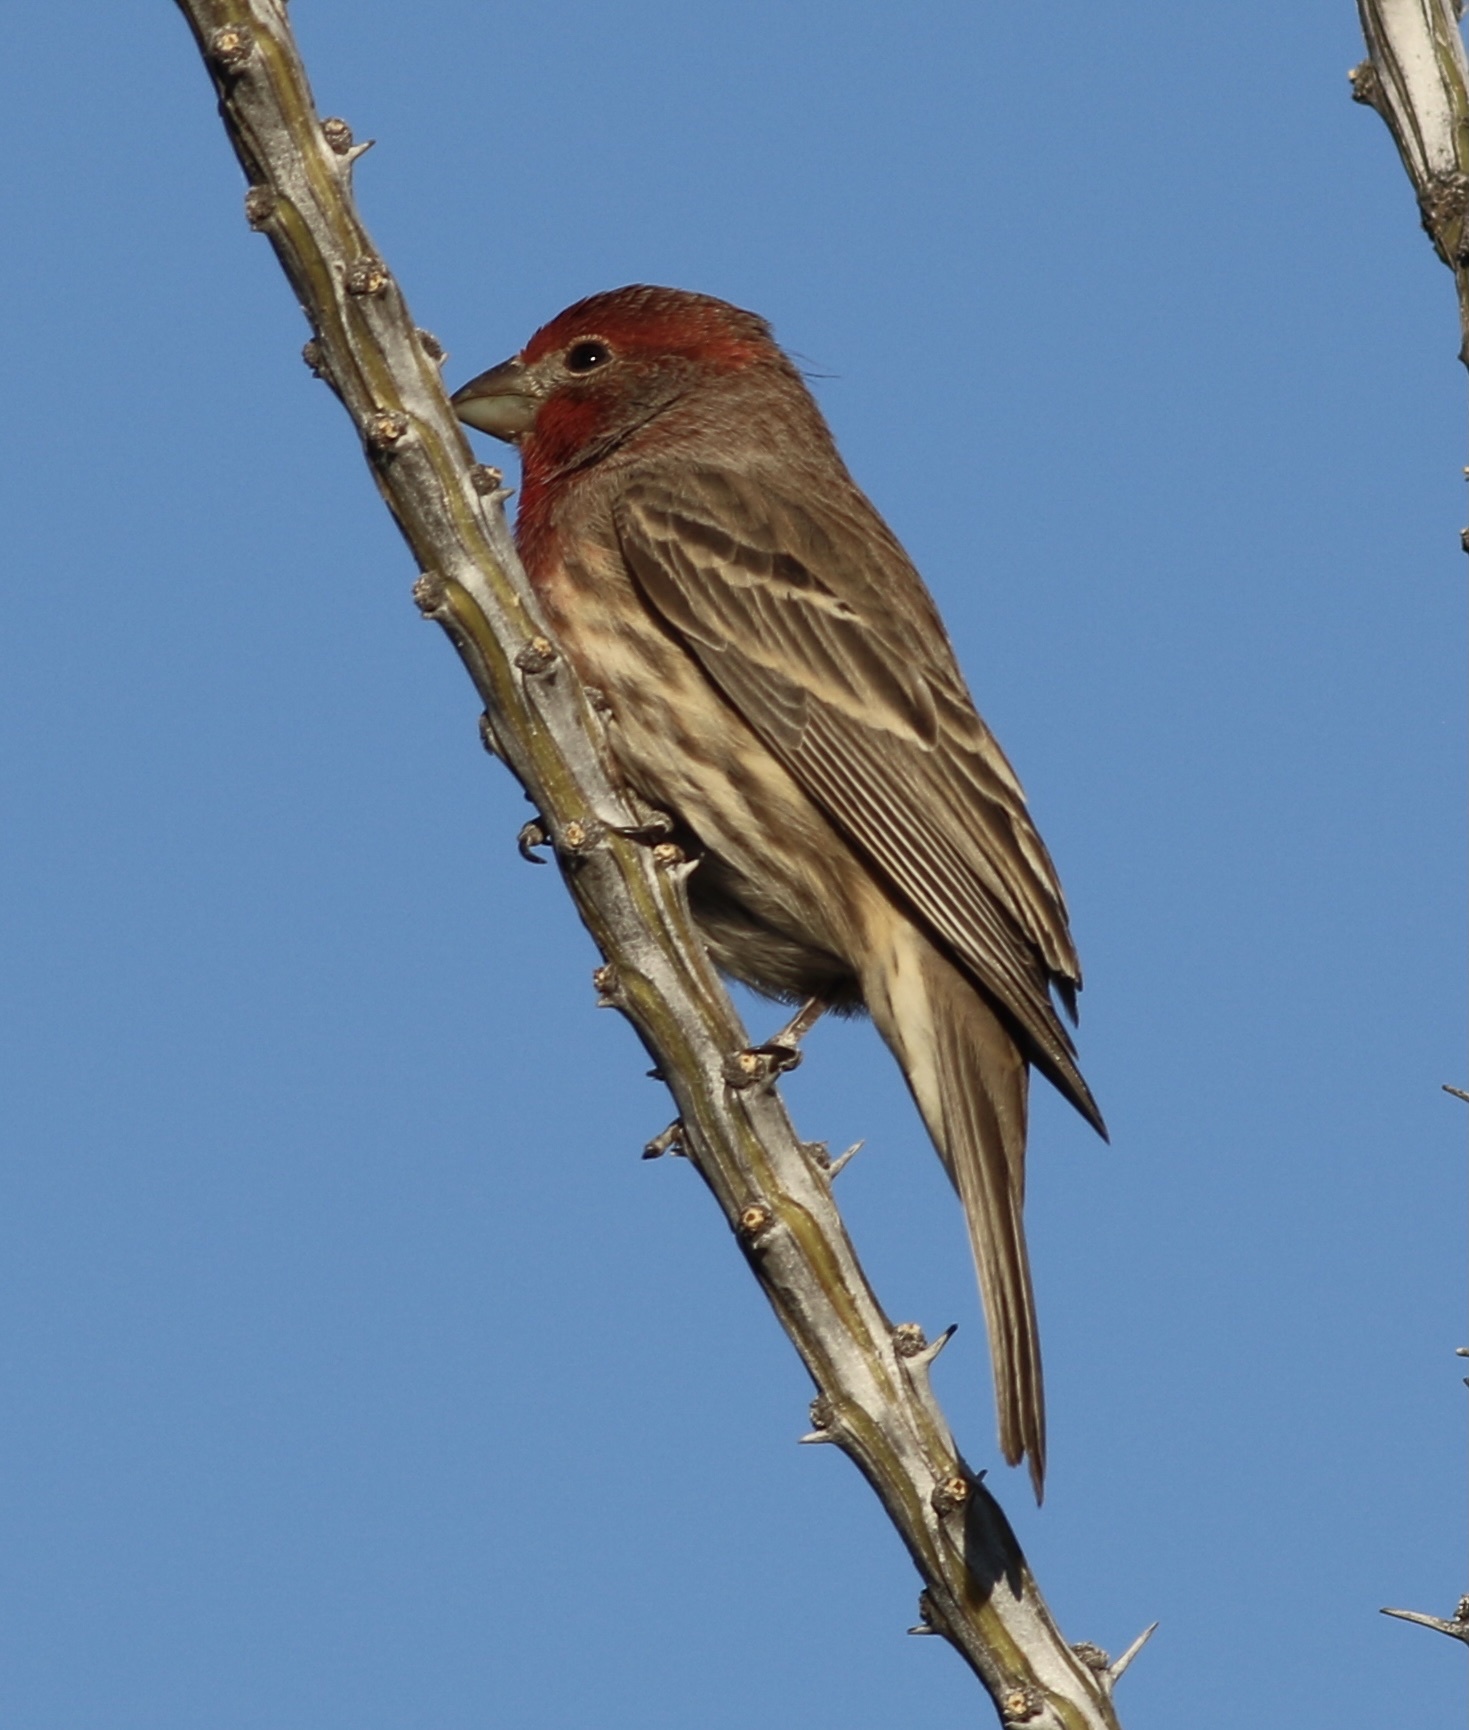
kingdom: Animalia
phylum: Chordata
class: Aves
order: Passeriformes
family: Fringillidae
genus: Haemorhous
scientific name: Haemorhous mexicanus
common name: House finch
